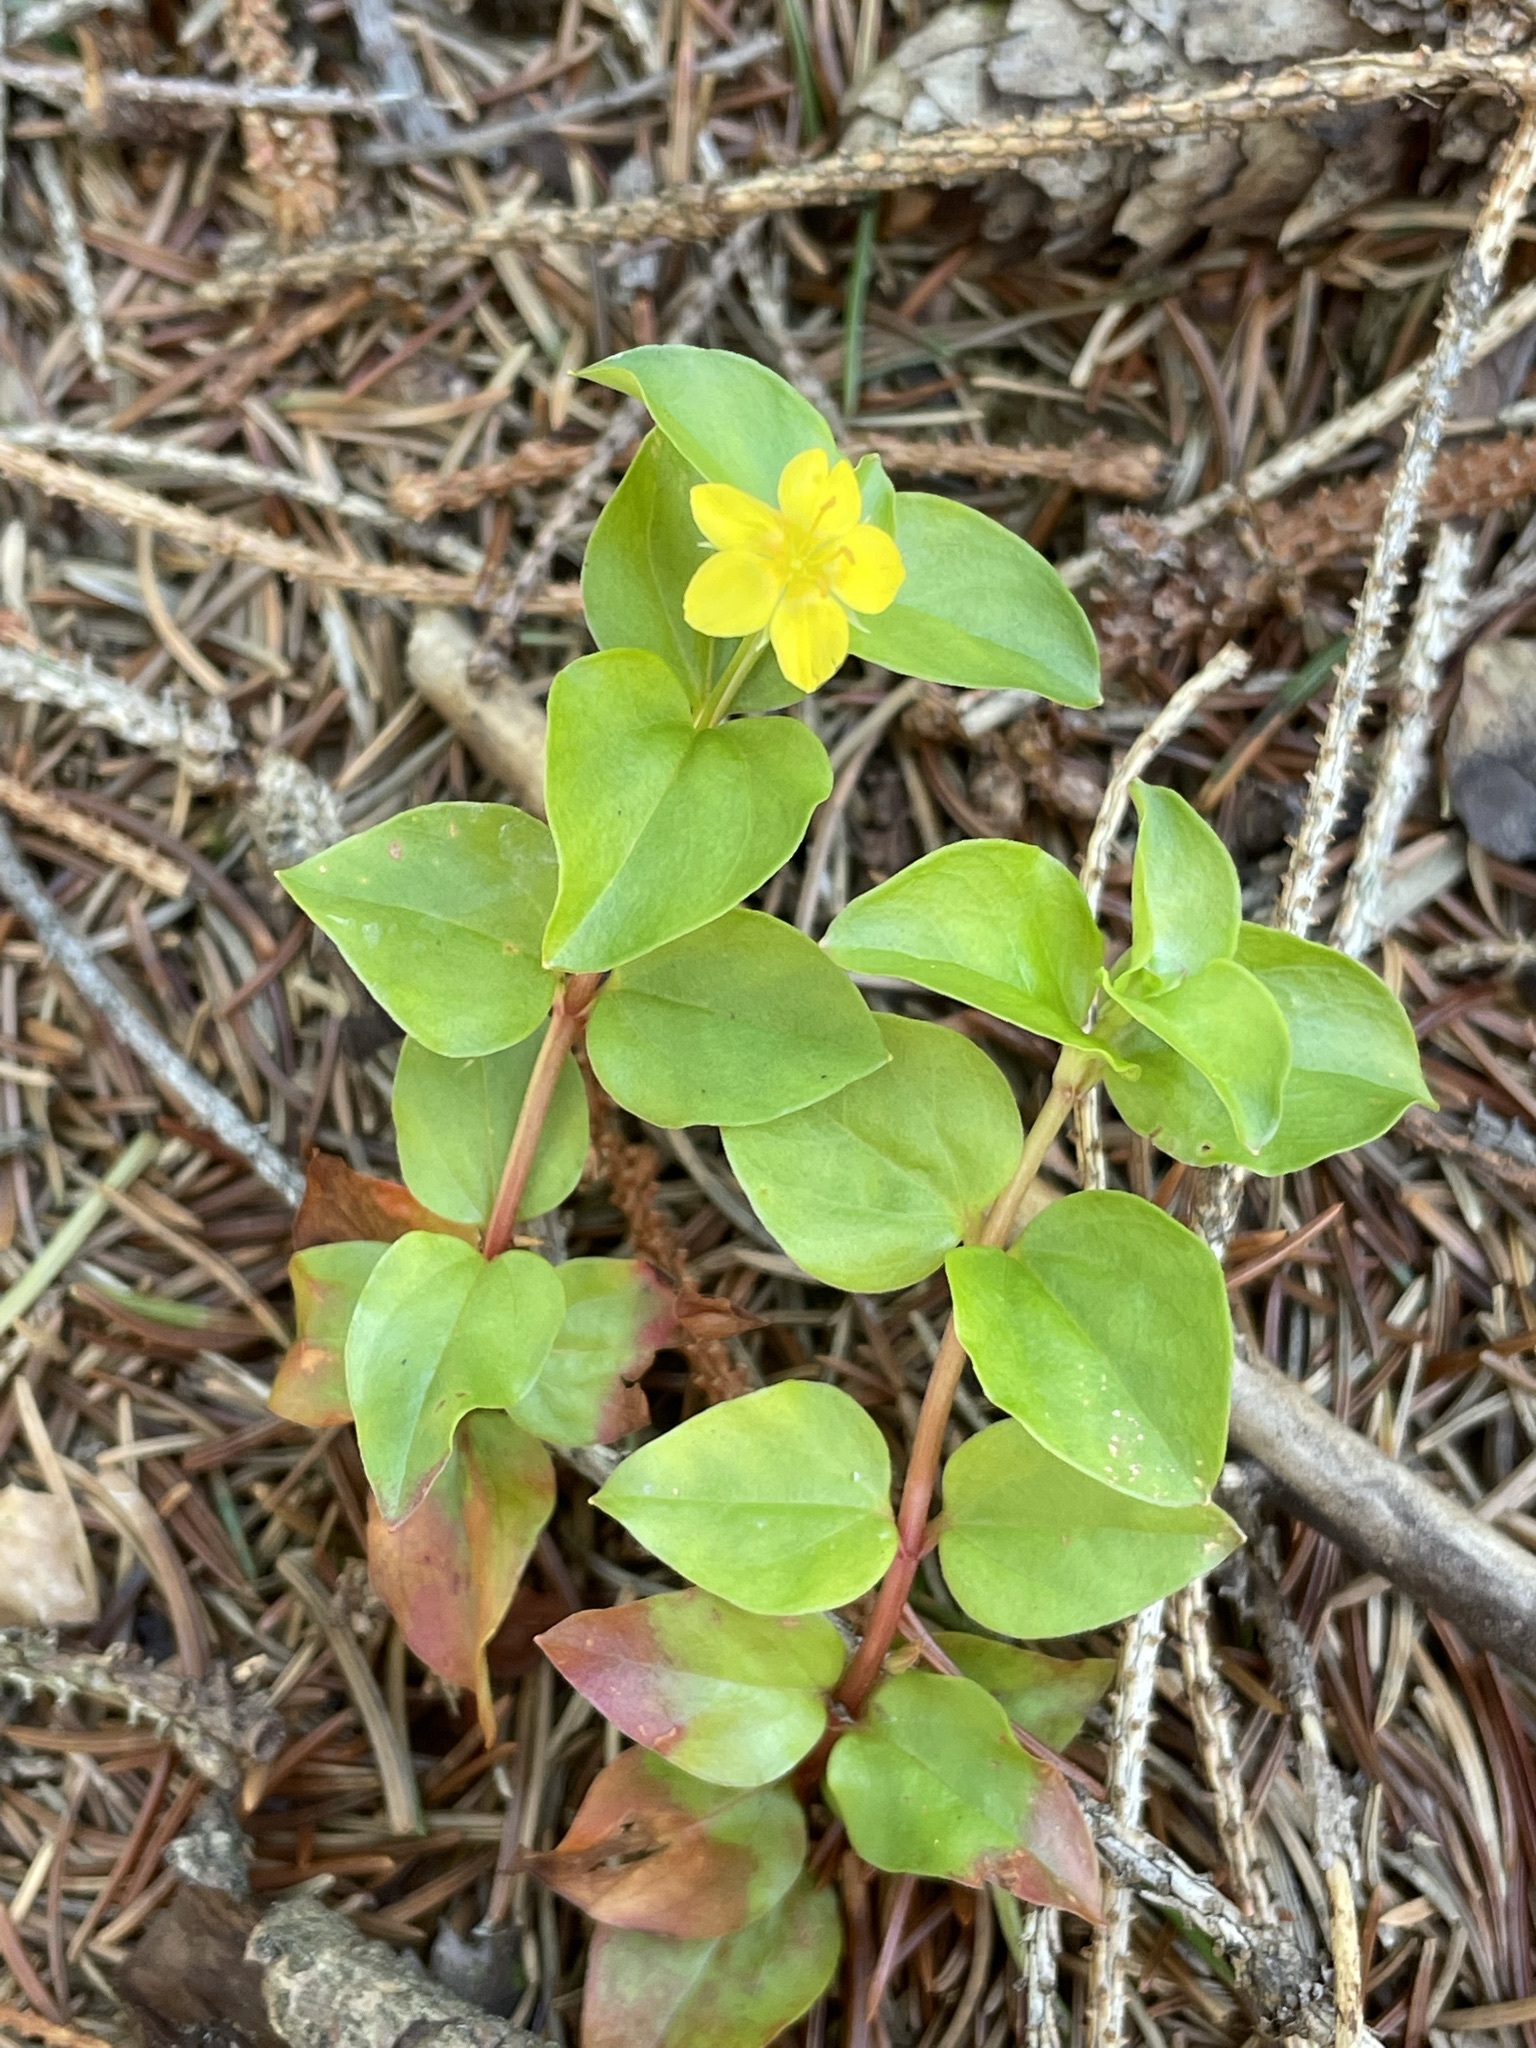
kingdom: Plantae
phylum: Tracheophyta
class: Magnoliopsida
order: Ericales
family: Primulaceae
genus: Lysimachia
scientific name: Lysimachia nemorum
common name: Yellow pimpernel
